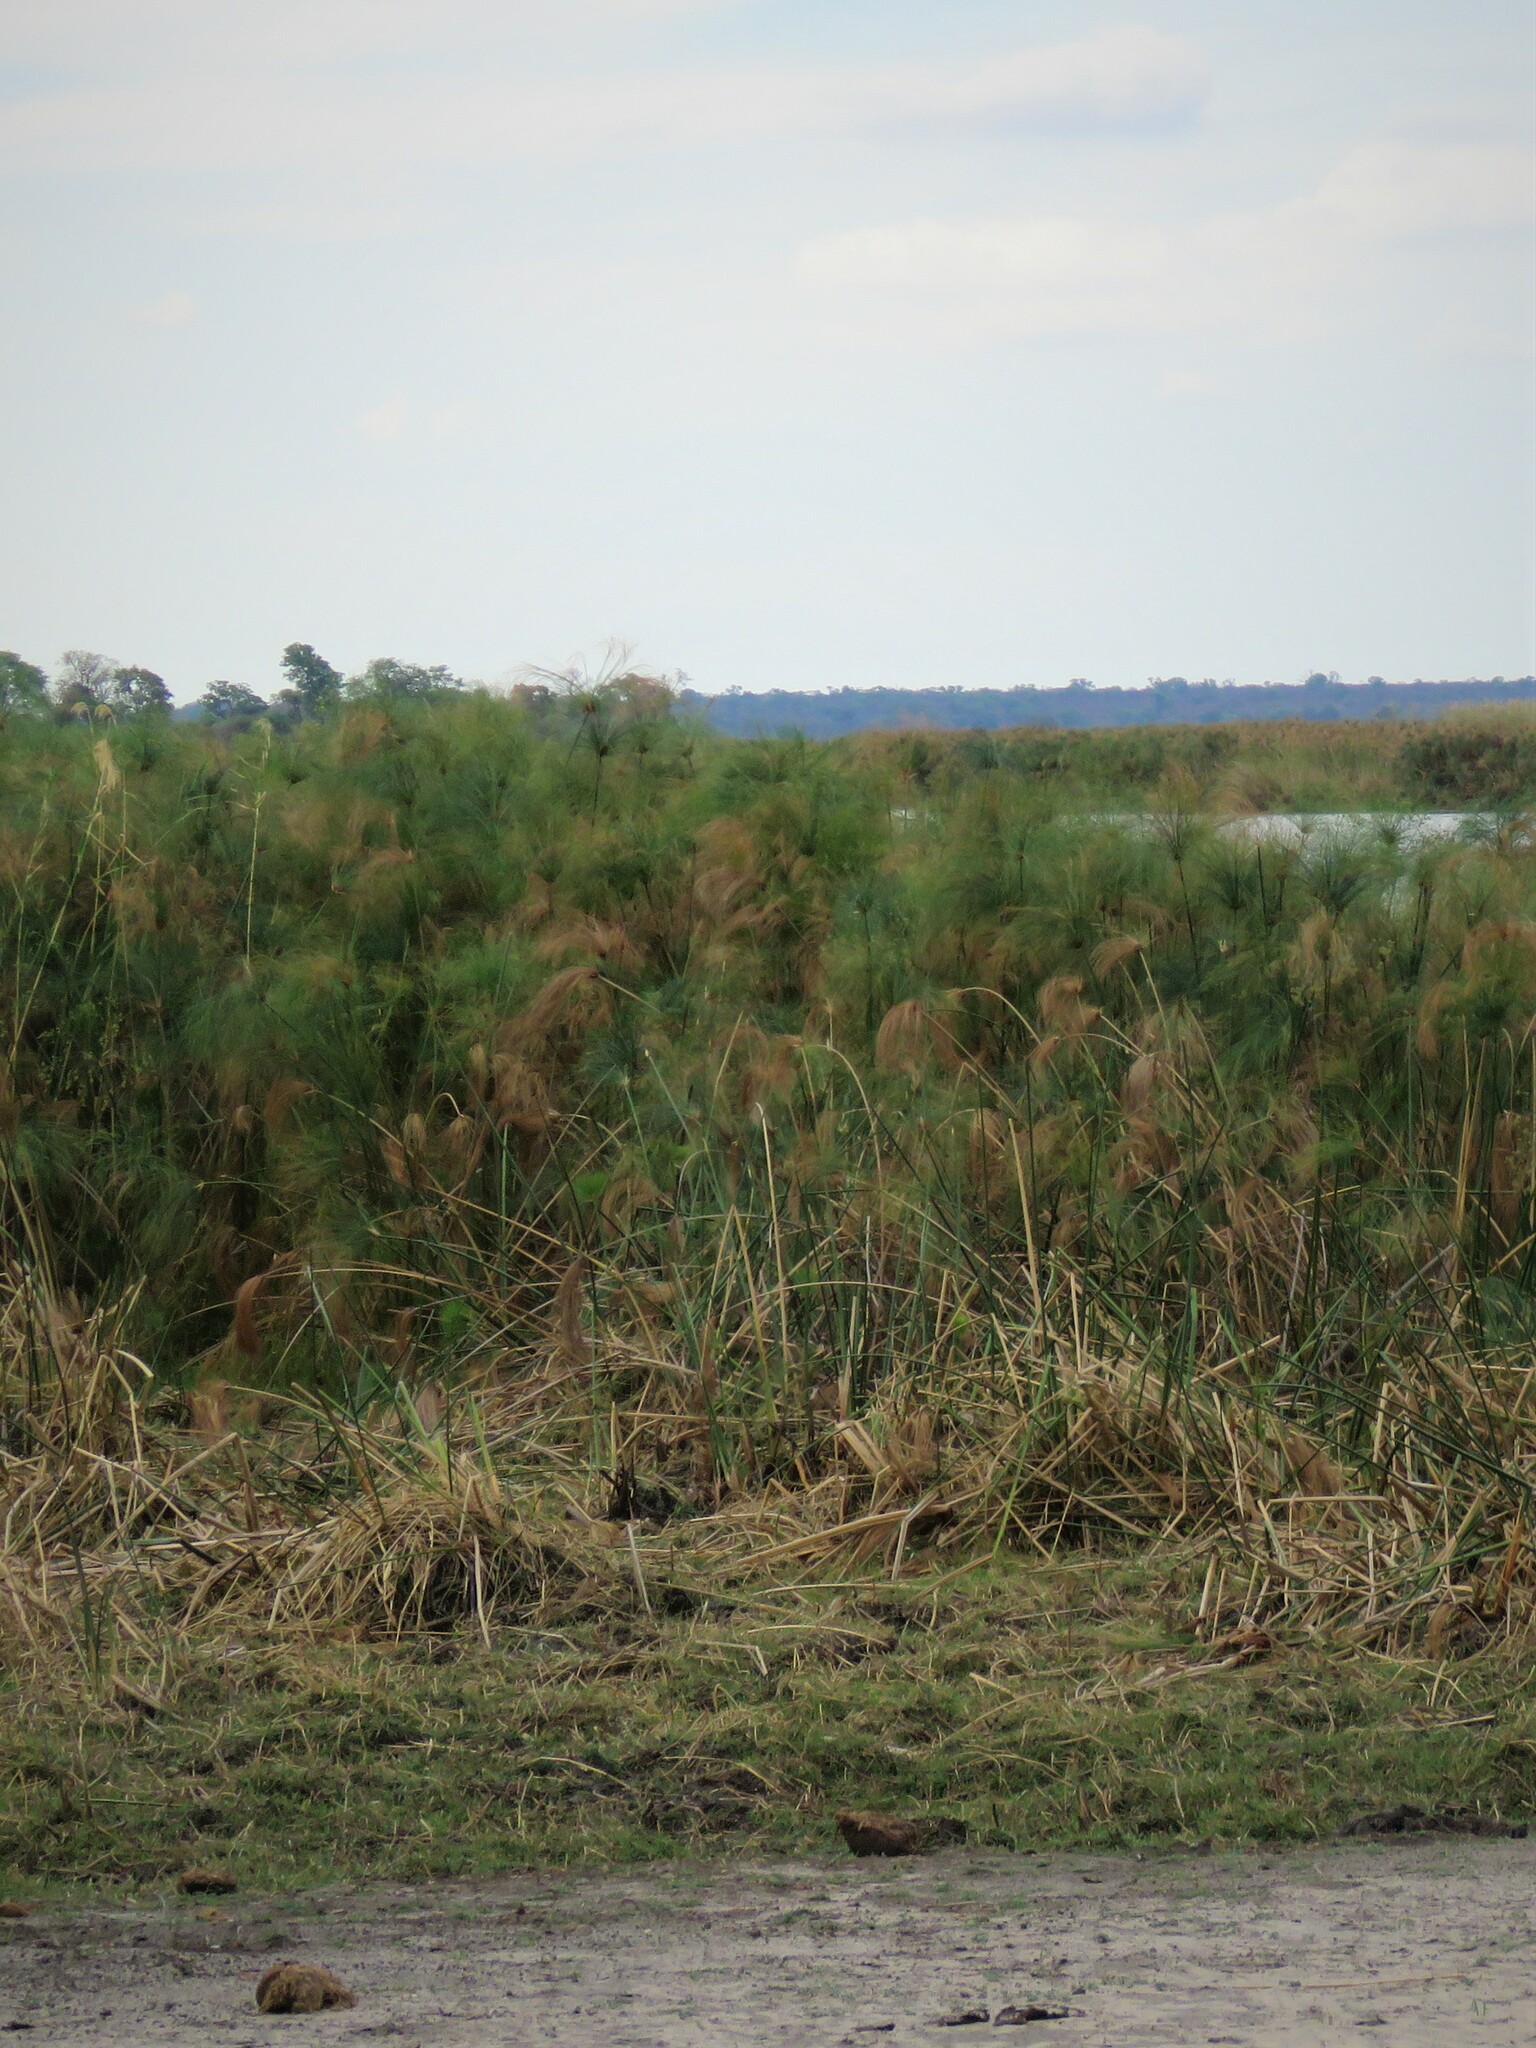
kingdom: Plantae
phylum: Tracheophyta
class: Liliopsida
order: Poales
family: Cyperaceae
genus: Cyperus
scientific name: Cyperus papyrus
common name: Papyrus
